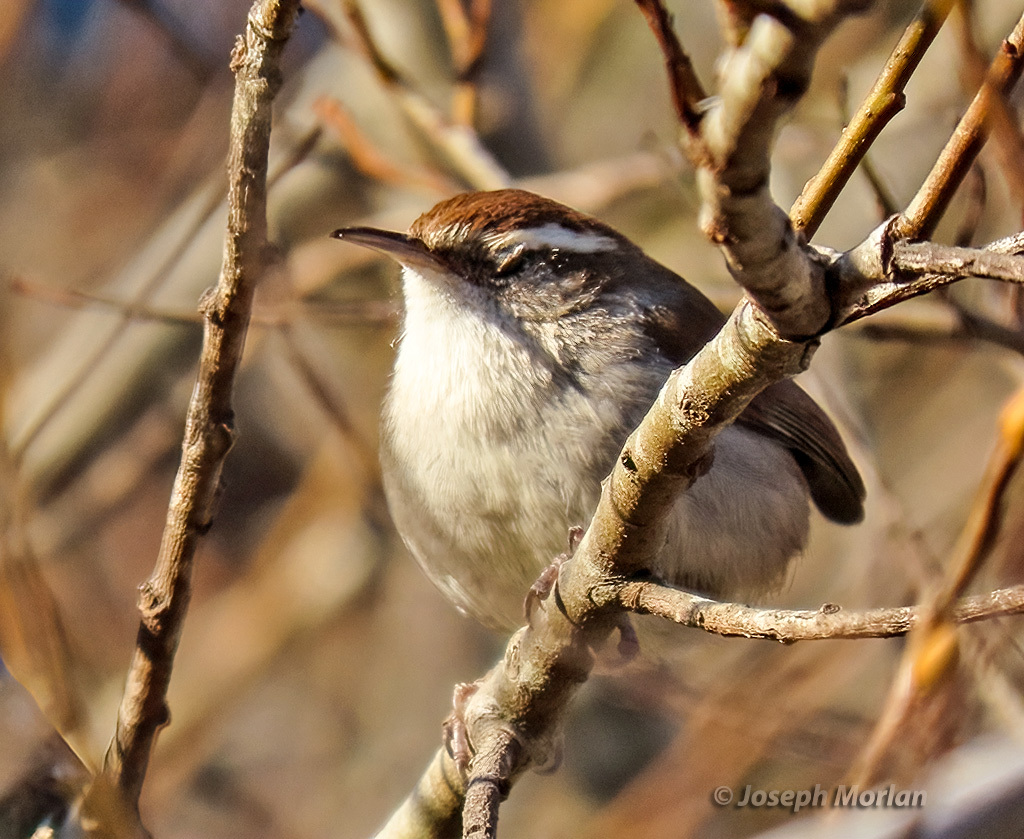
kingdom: Animalia
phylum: Chordata
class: Aves
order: Passeriformes
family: Troglodytidae
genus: Thryomanes
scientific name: Thryomanes bewickii
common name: Bewick's wren
